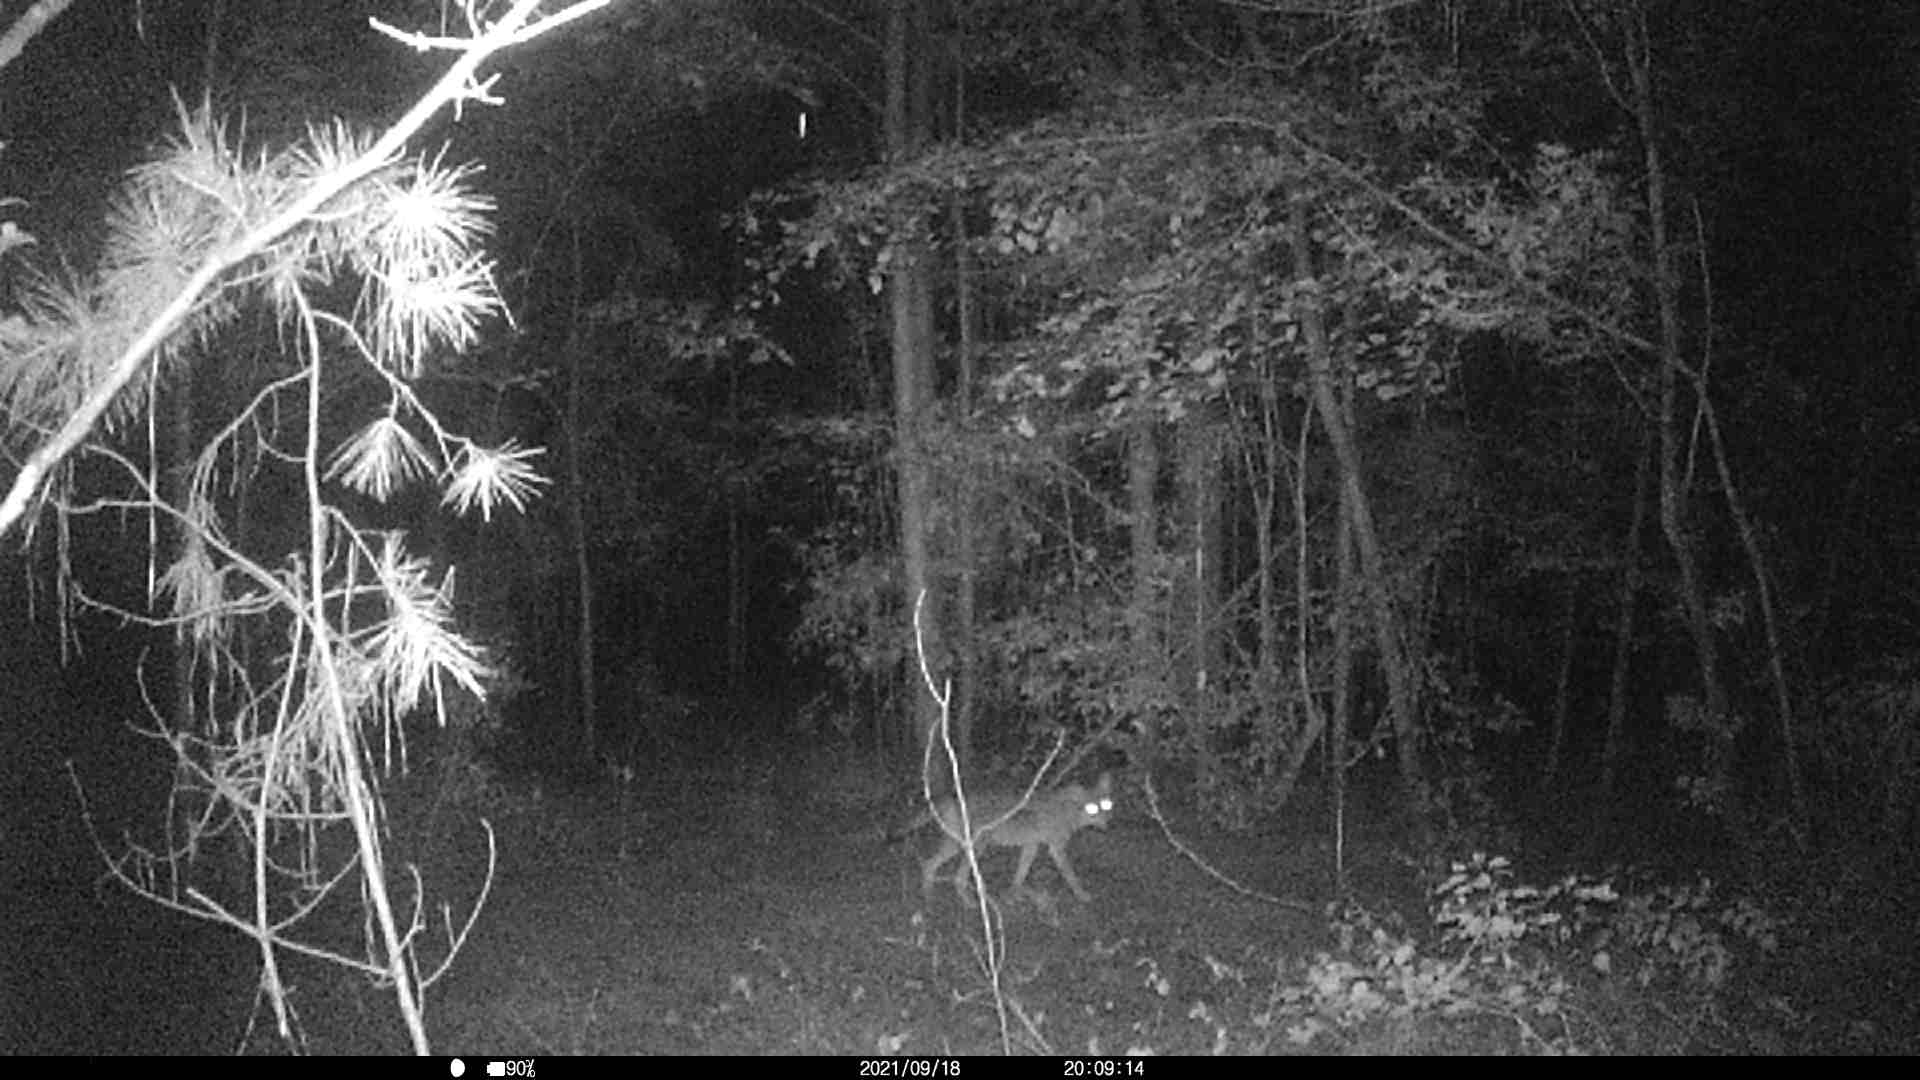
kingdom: Animalia
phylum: Chordata
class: Mammalia
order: Carnivora
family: Canidae
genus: Canis
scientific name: Canis latrans
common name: Coyote
